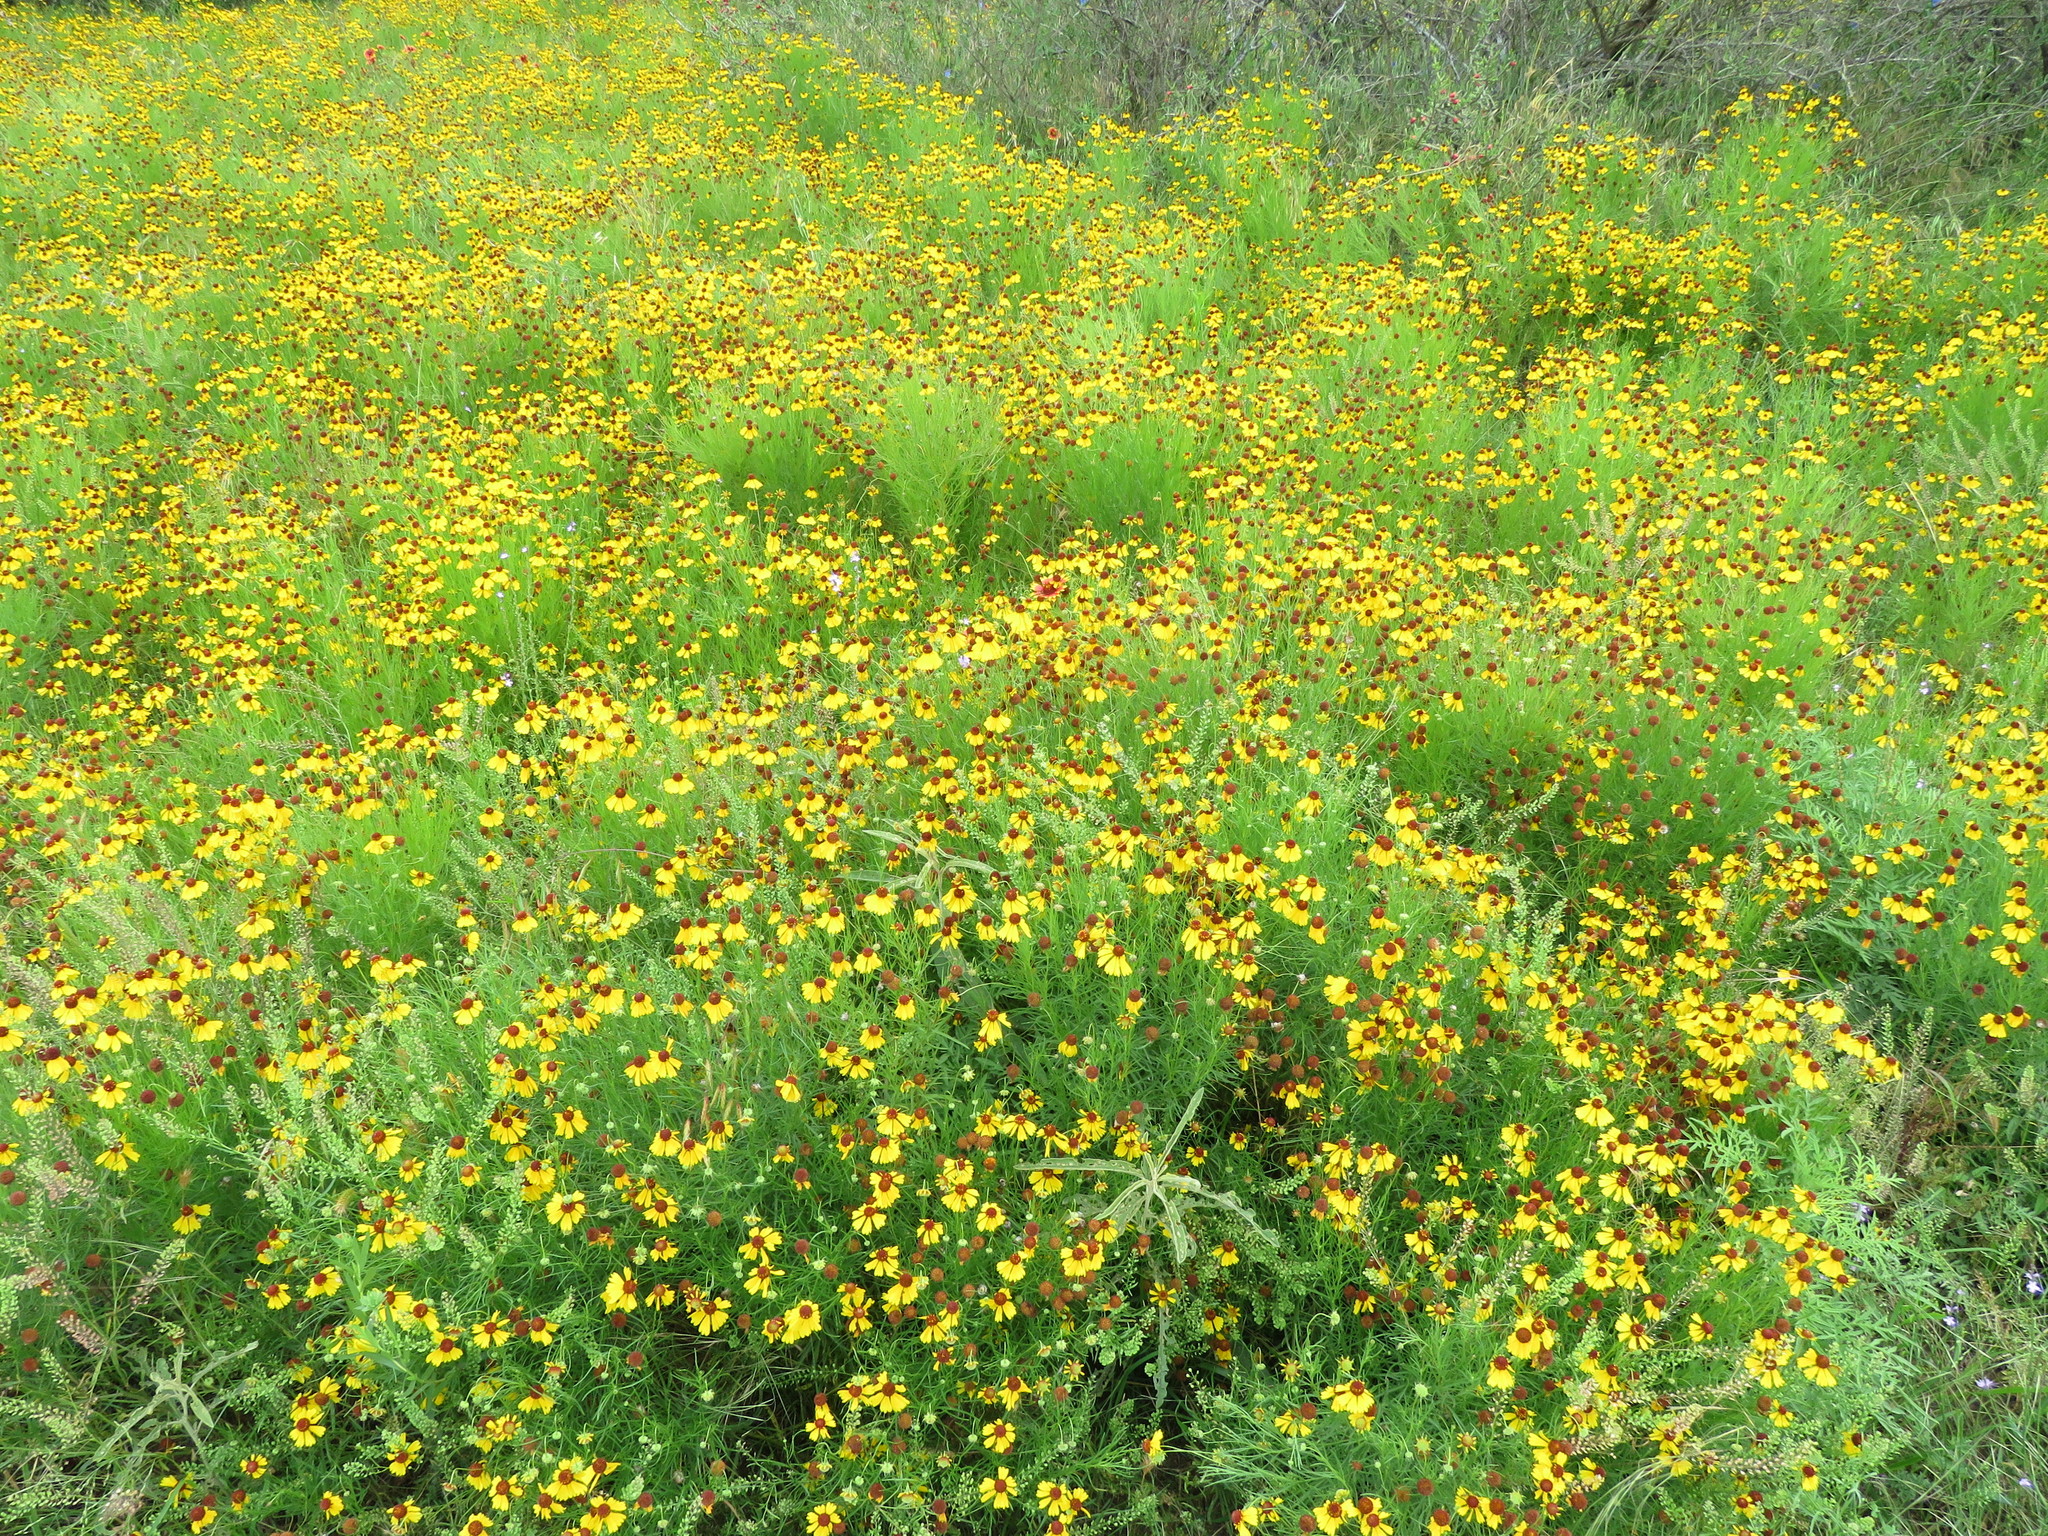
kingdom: Plantae
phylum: Tracheophyta
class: Magnoliopsida
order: Asterales
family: Asteraceae
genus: Helenium
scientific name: Helenium amarum
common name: Bitter sneezeweed
